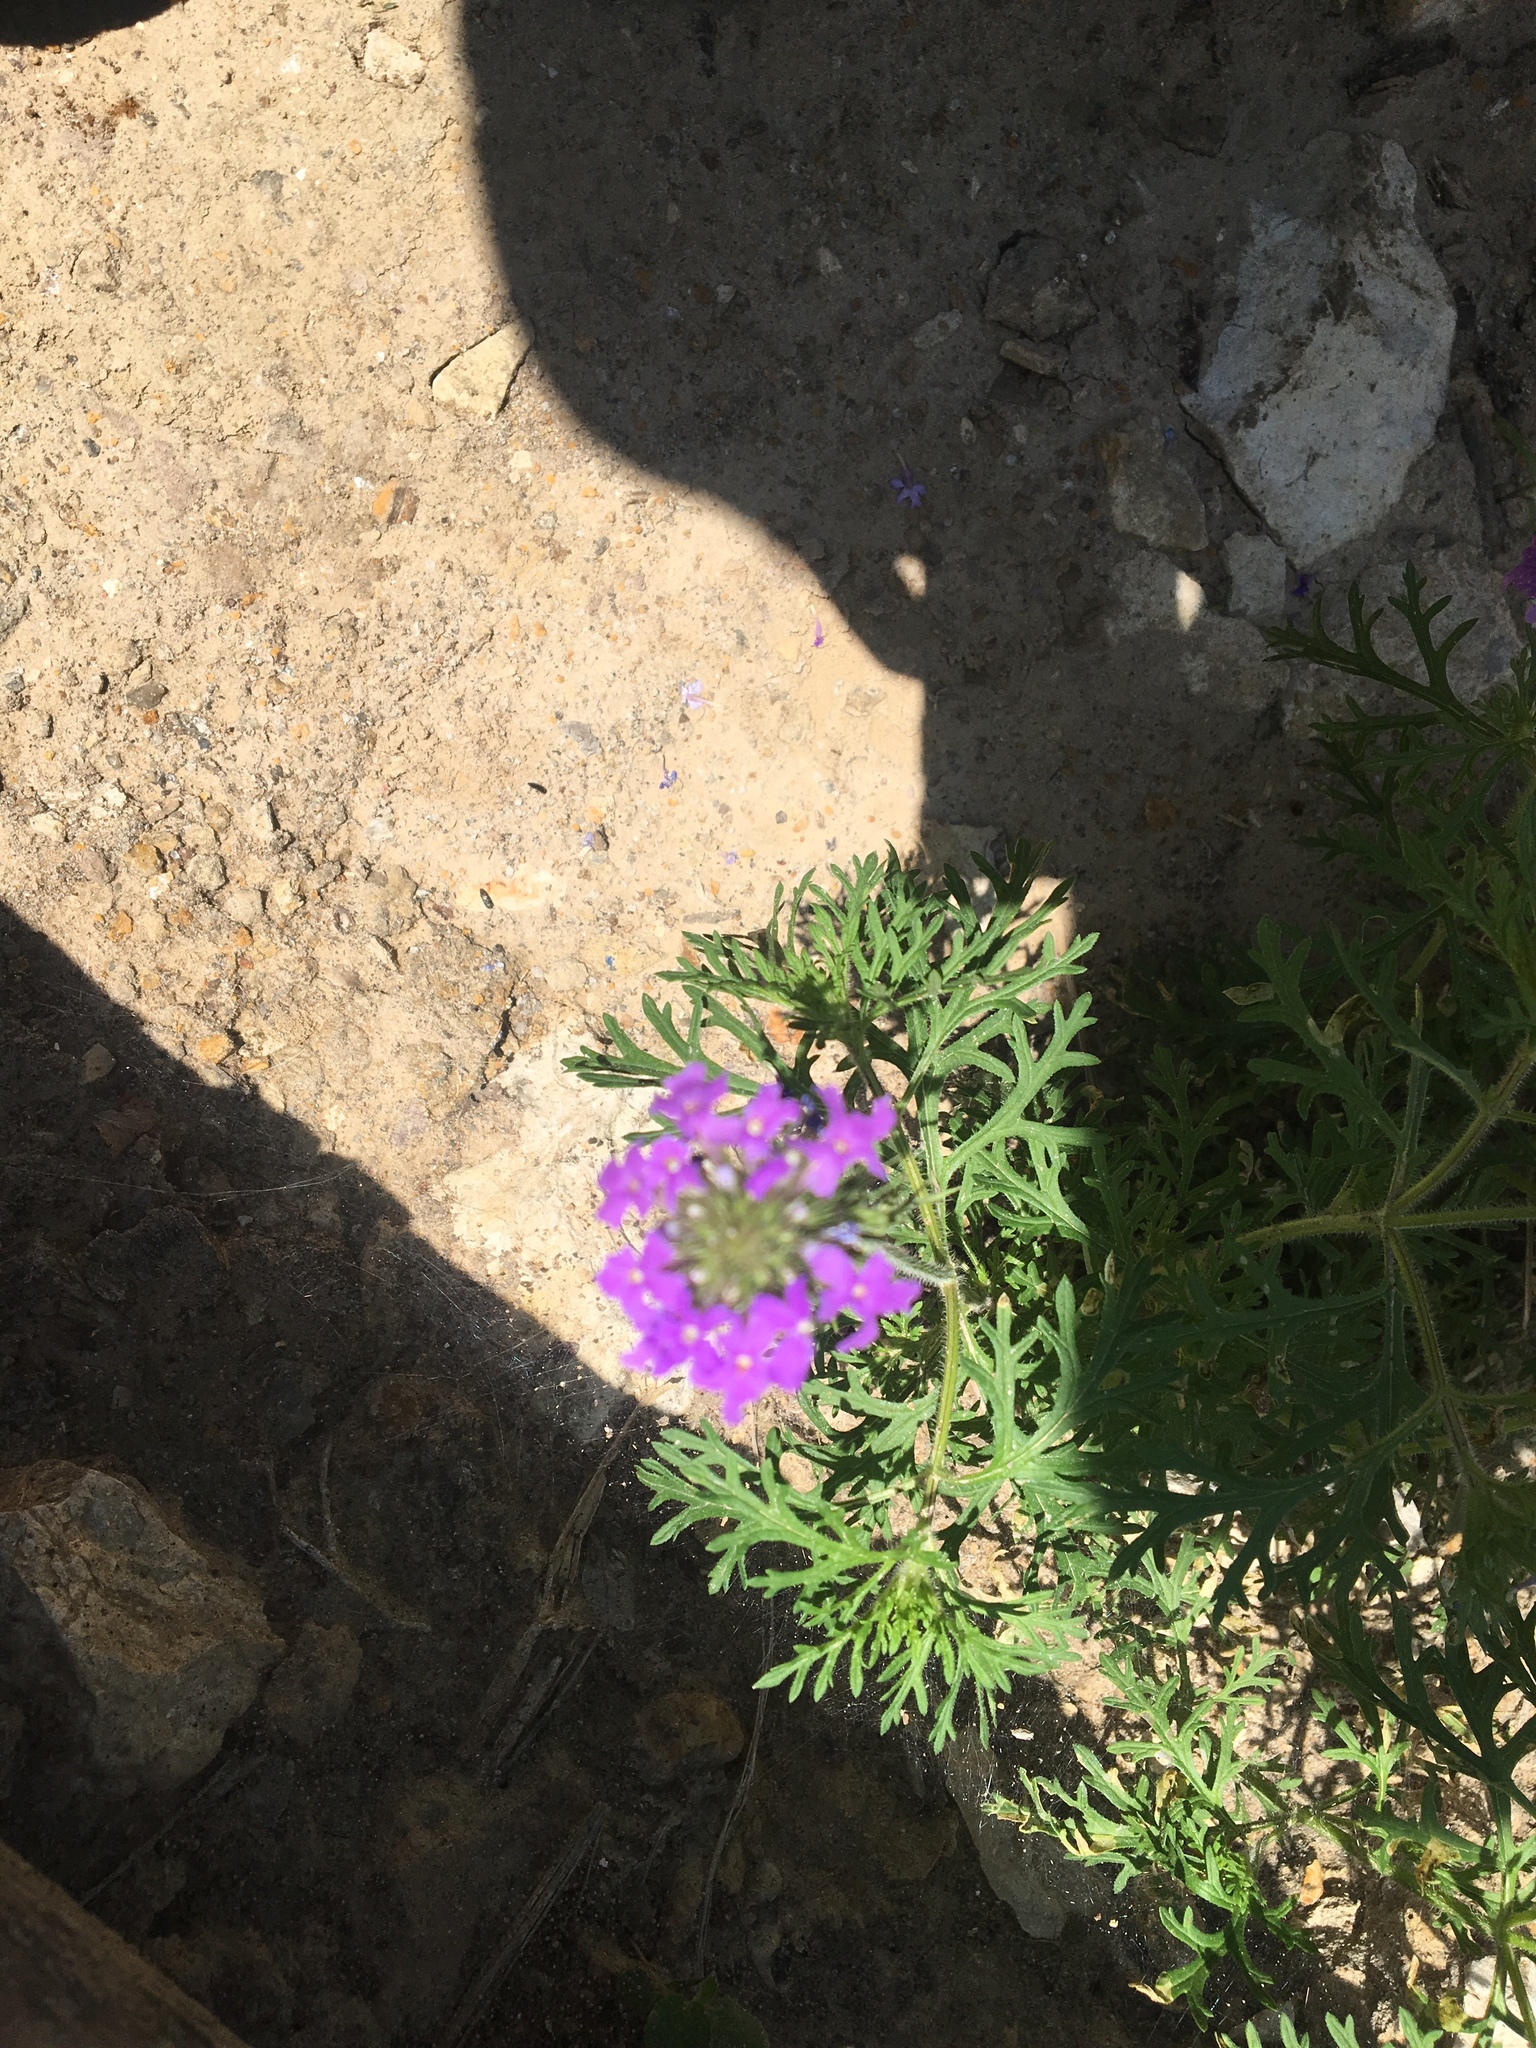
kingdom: Plantae
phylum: Tracheophyta
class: Magnoliopsida
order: Lamiales
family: Verbenaceae
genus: Verbena
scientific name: Verbena canadensis
